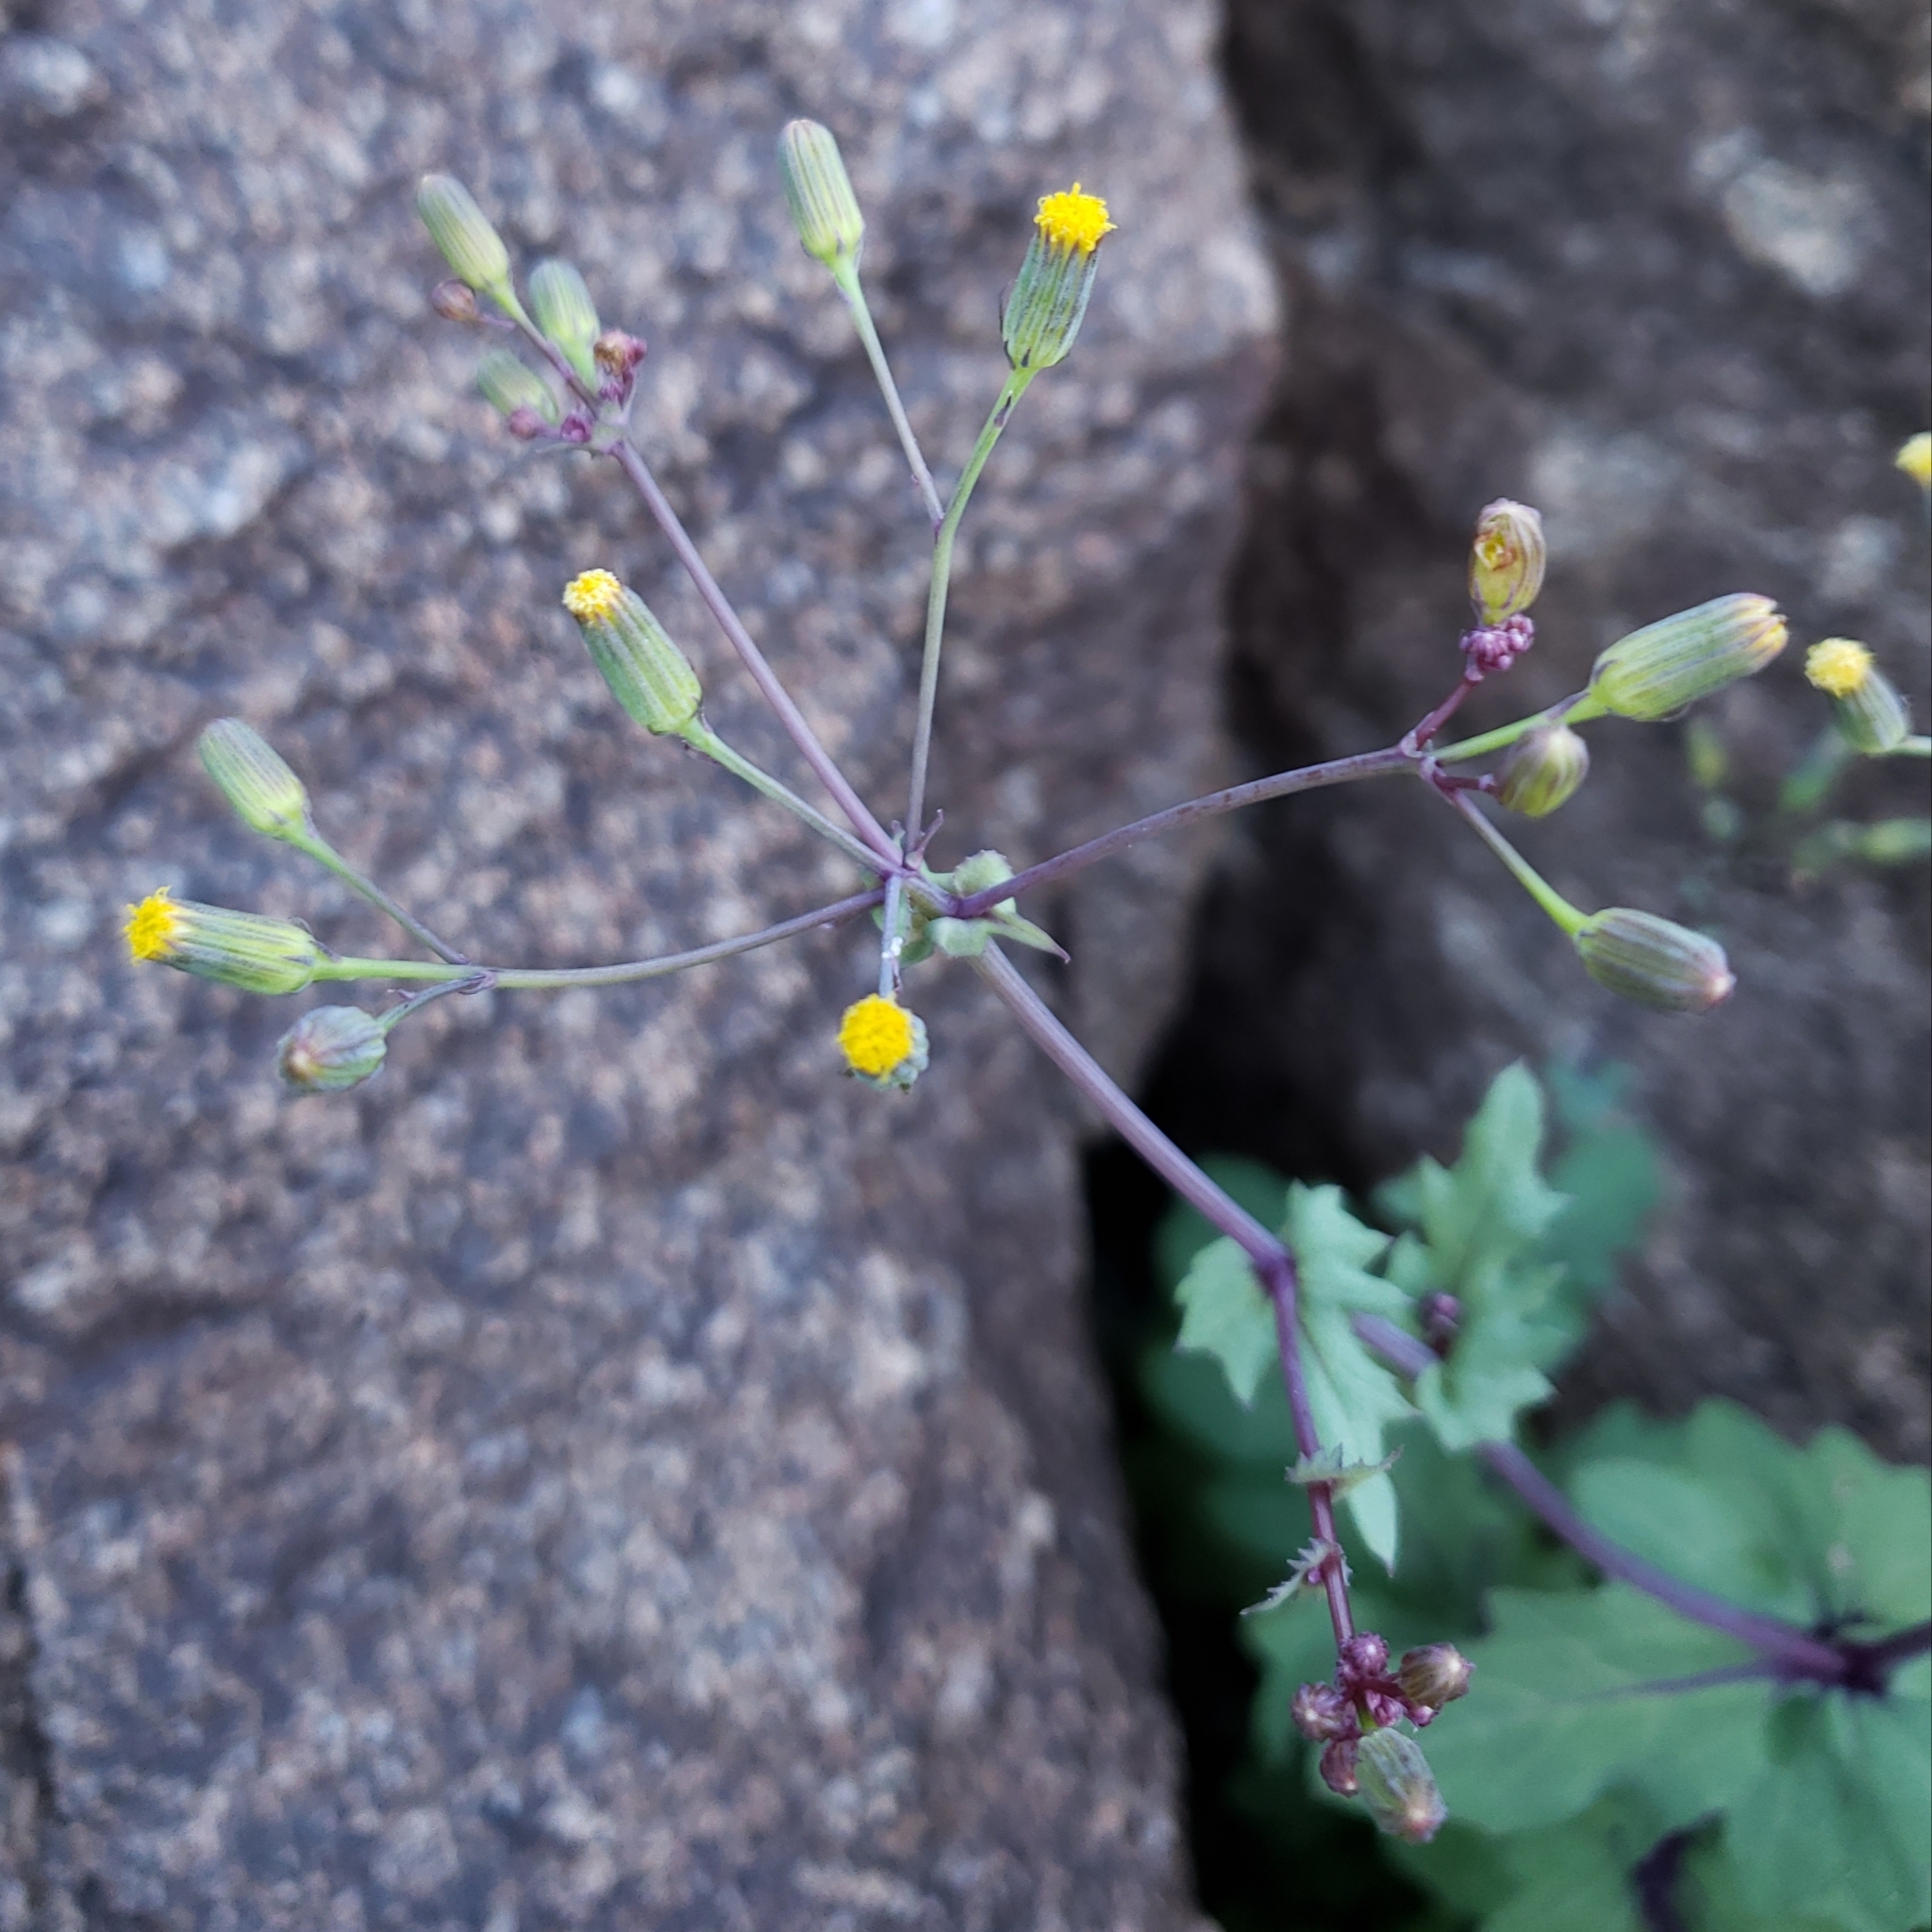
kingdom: Plantae
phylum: Tracheophyta
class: Magnoliopsida
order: Asterales
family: Asteraceae
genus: Senecio
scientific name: Senecio mohavensis
